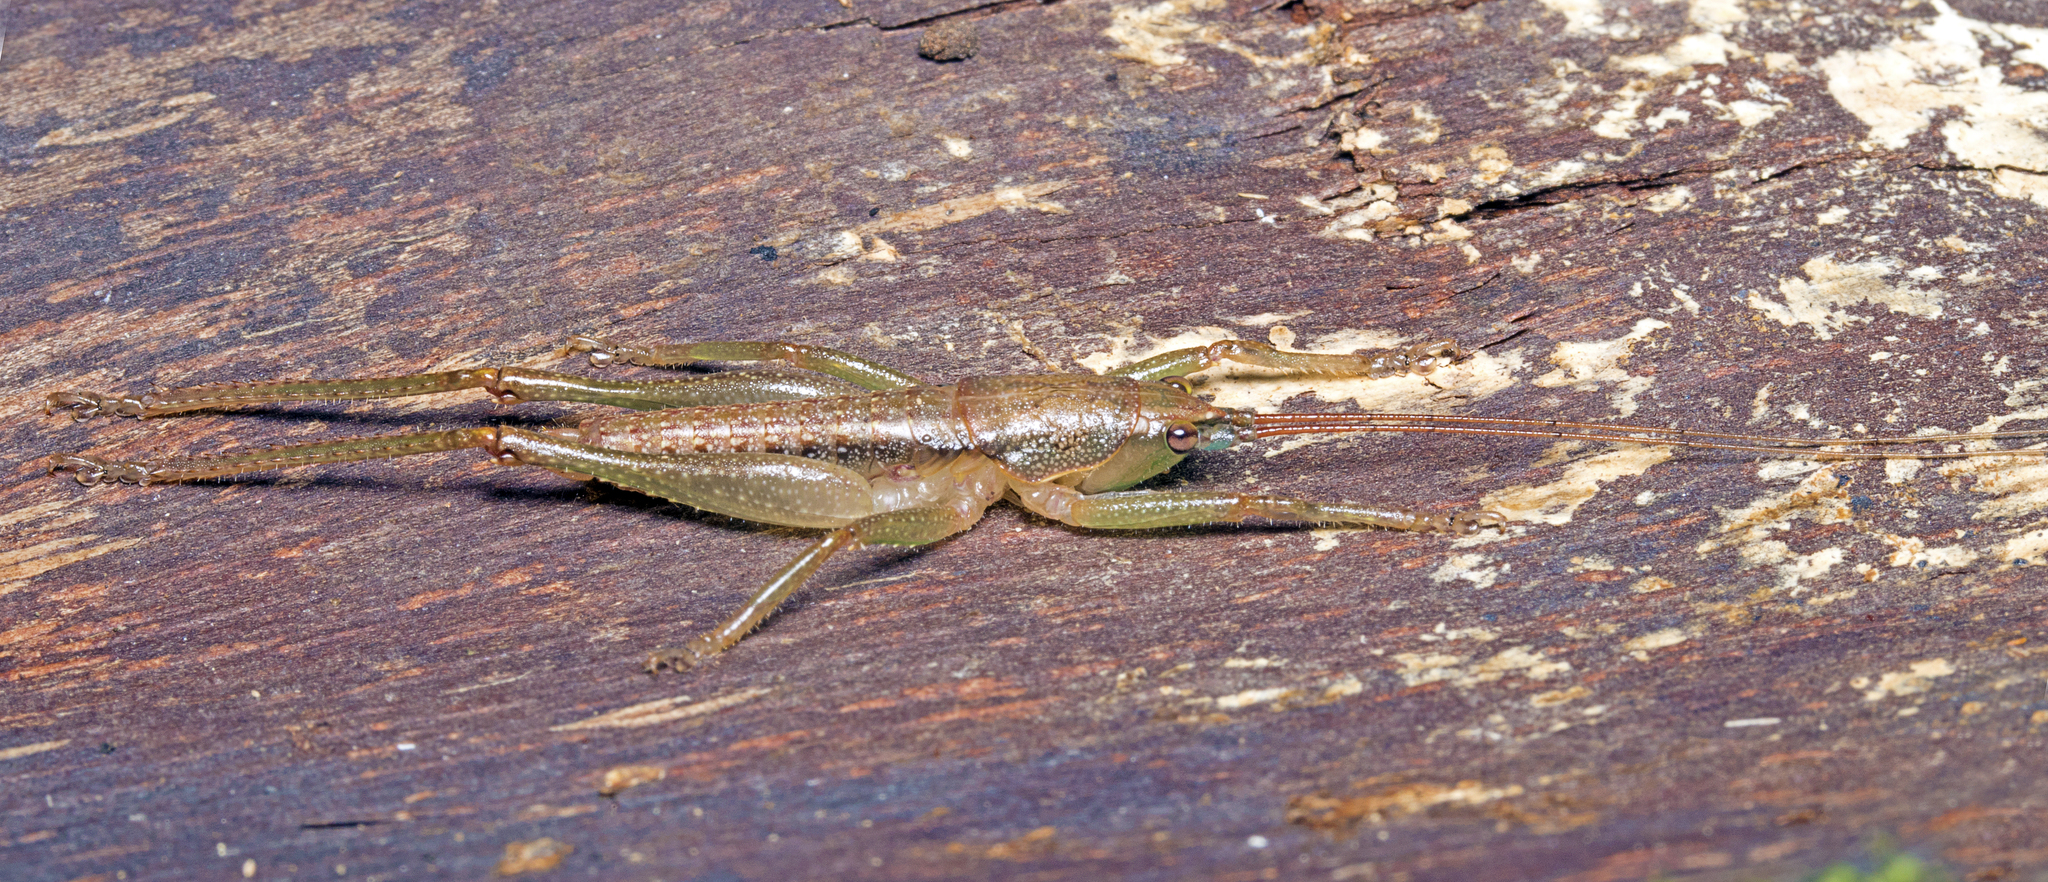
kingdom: Animalia
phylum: Arthropoda
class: Insecta
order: Orthoptera
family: Tettigoniidae
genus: Austrosalomona
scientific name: Austrosalomona falcata
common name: Olive-green coastal katydid
